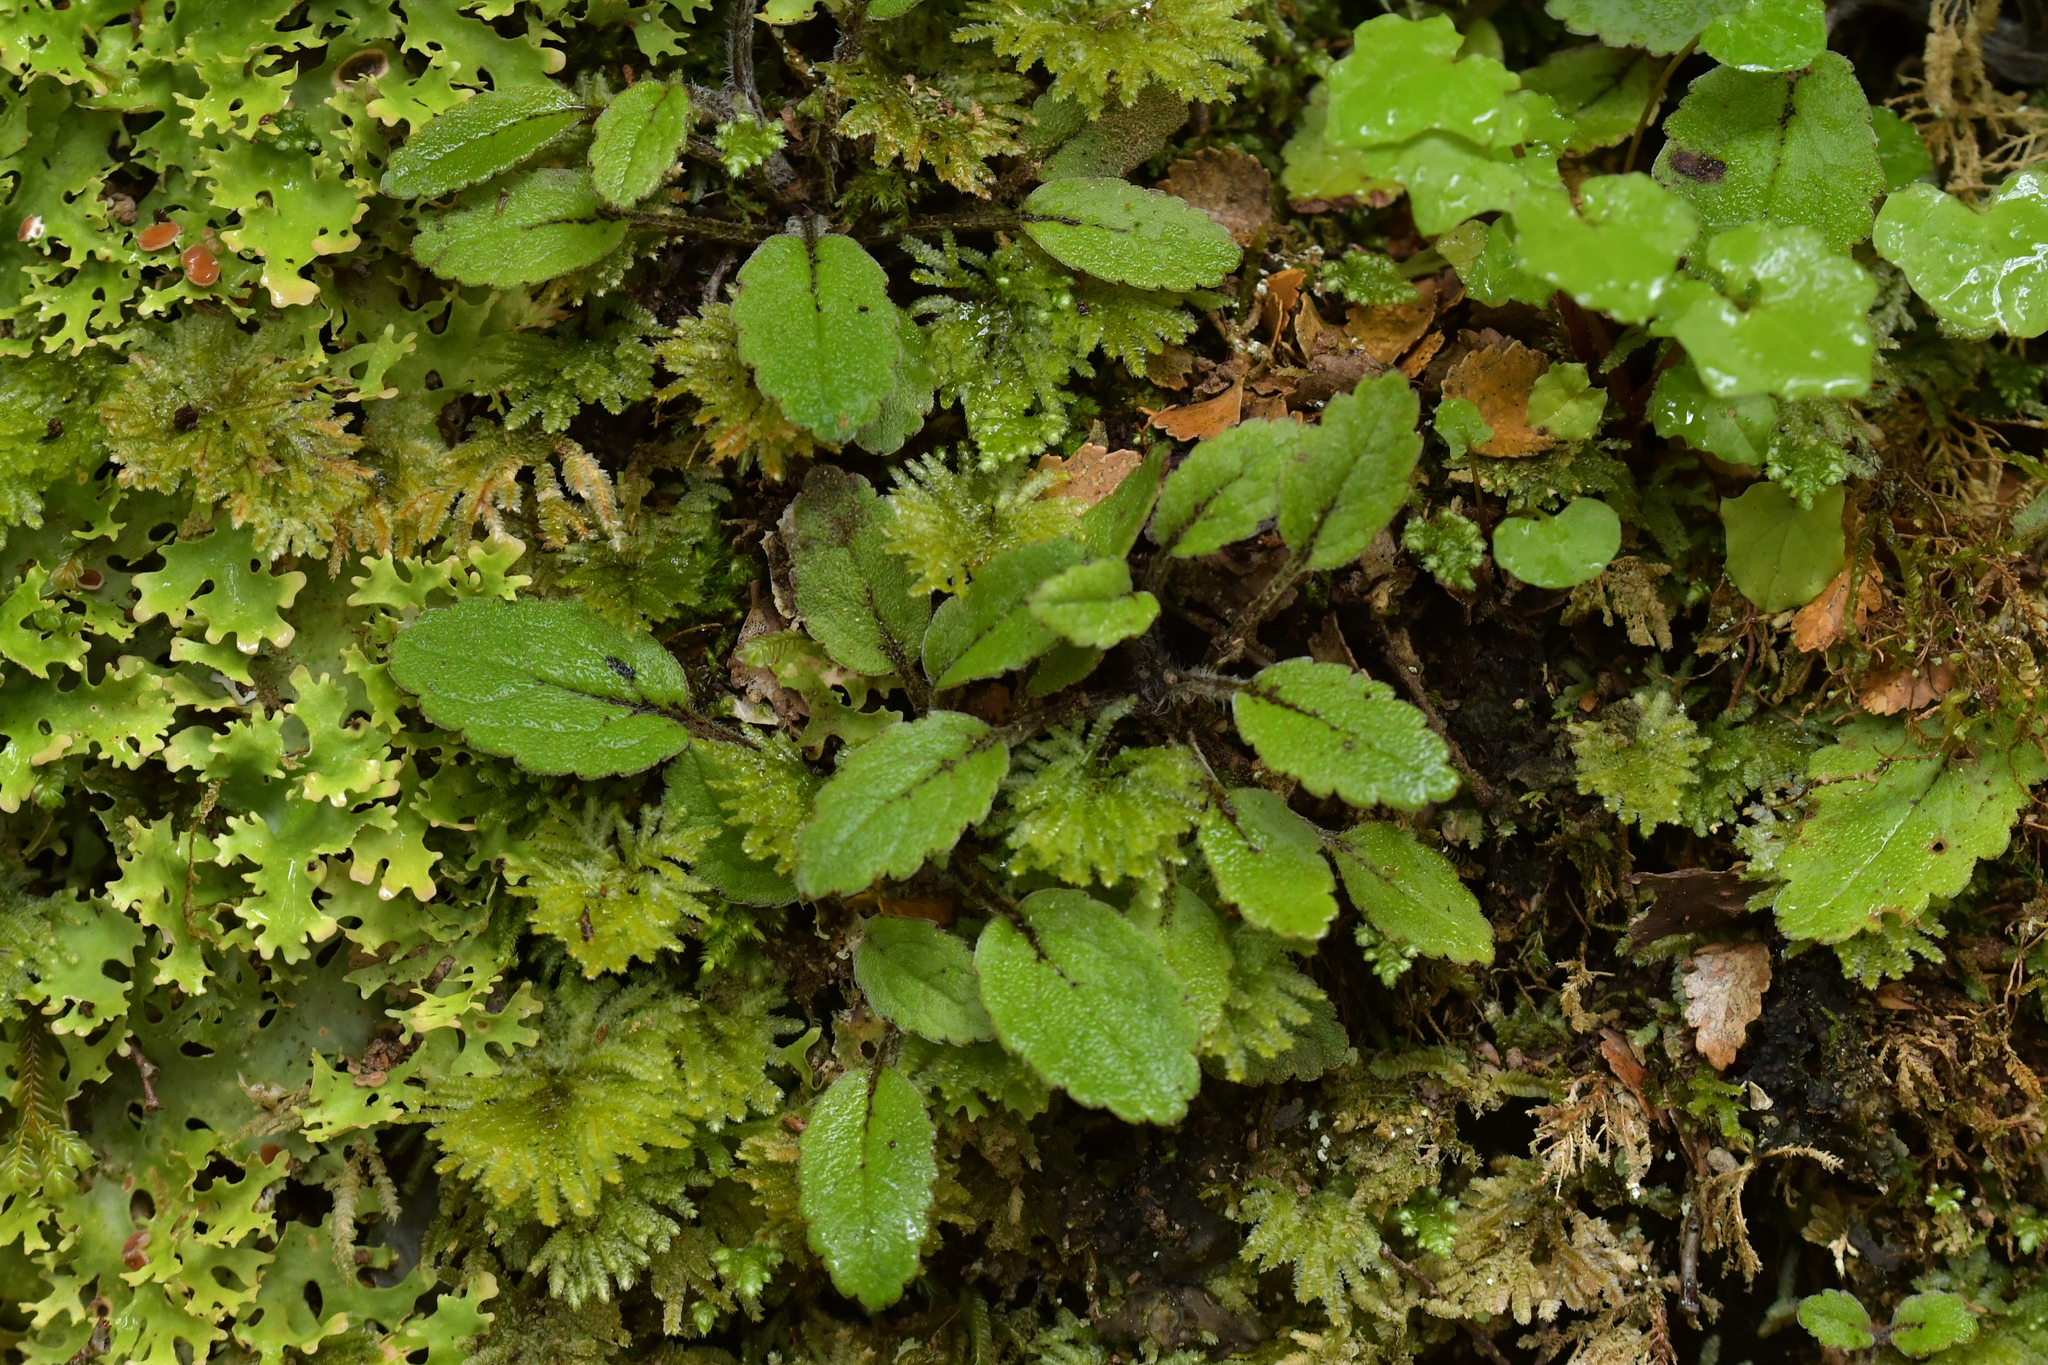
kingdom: Plantae
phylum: Tracheophyta
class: Magnoliopsida
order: Lamiales
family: Plantaginaceae
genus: Ourisia
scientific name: Ourisia macrophylla
